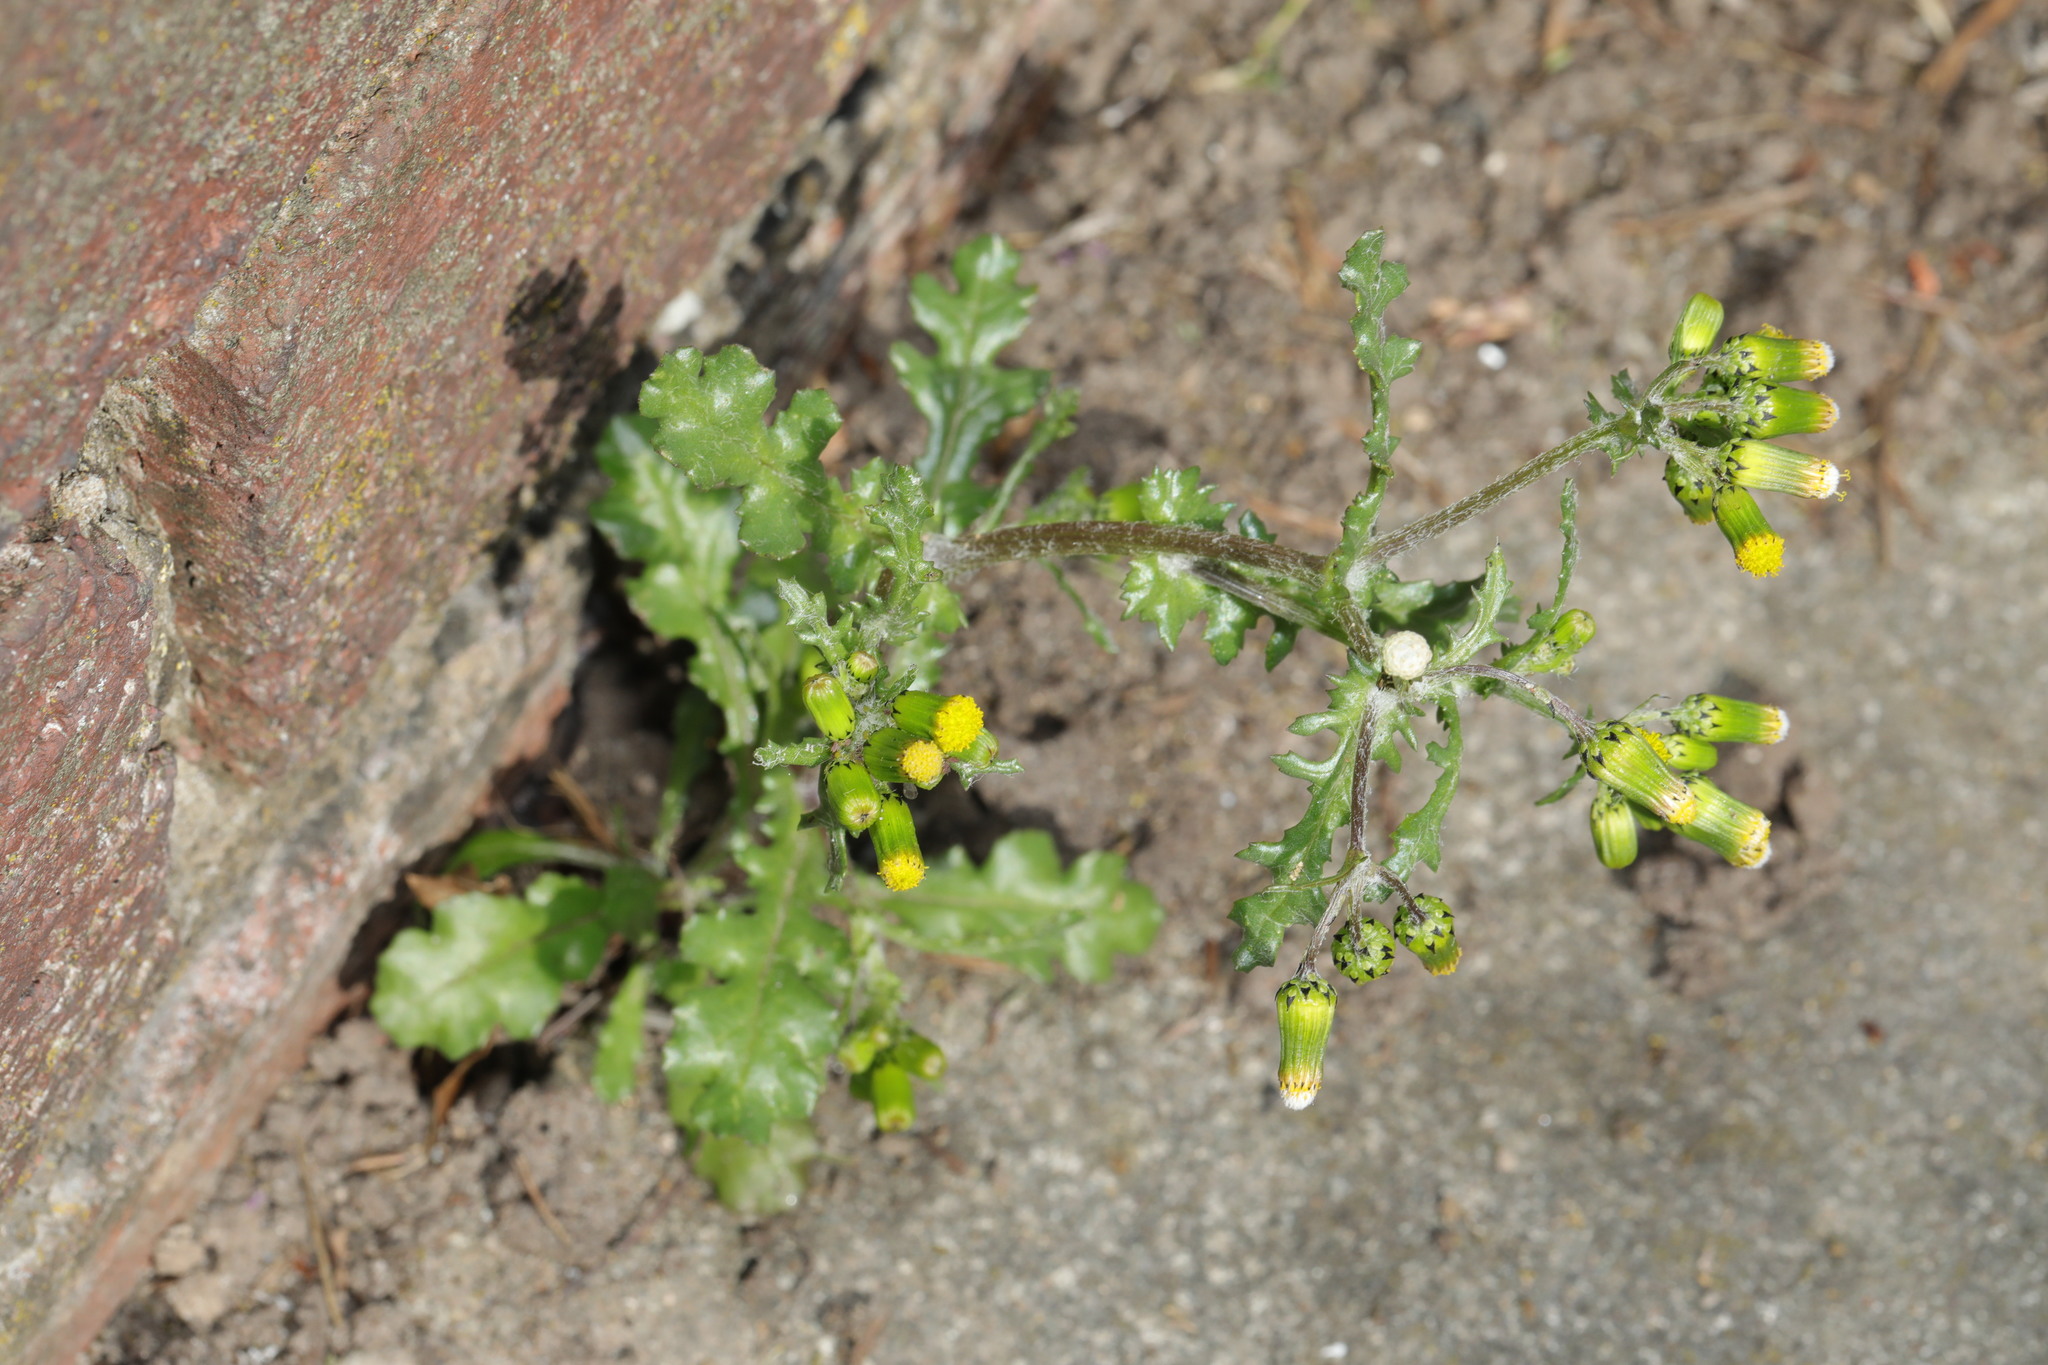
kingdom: Plantae
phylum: Tracheophyta
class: Magnoliopsida
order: Asterales
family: Asteraceae
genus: Senecio
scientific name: Senecio vulgaris
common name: Old-man-in-the-spring
